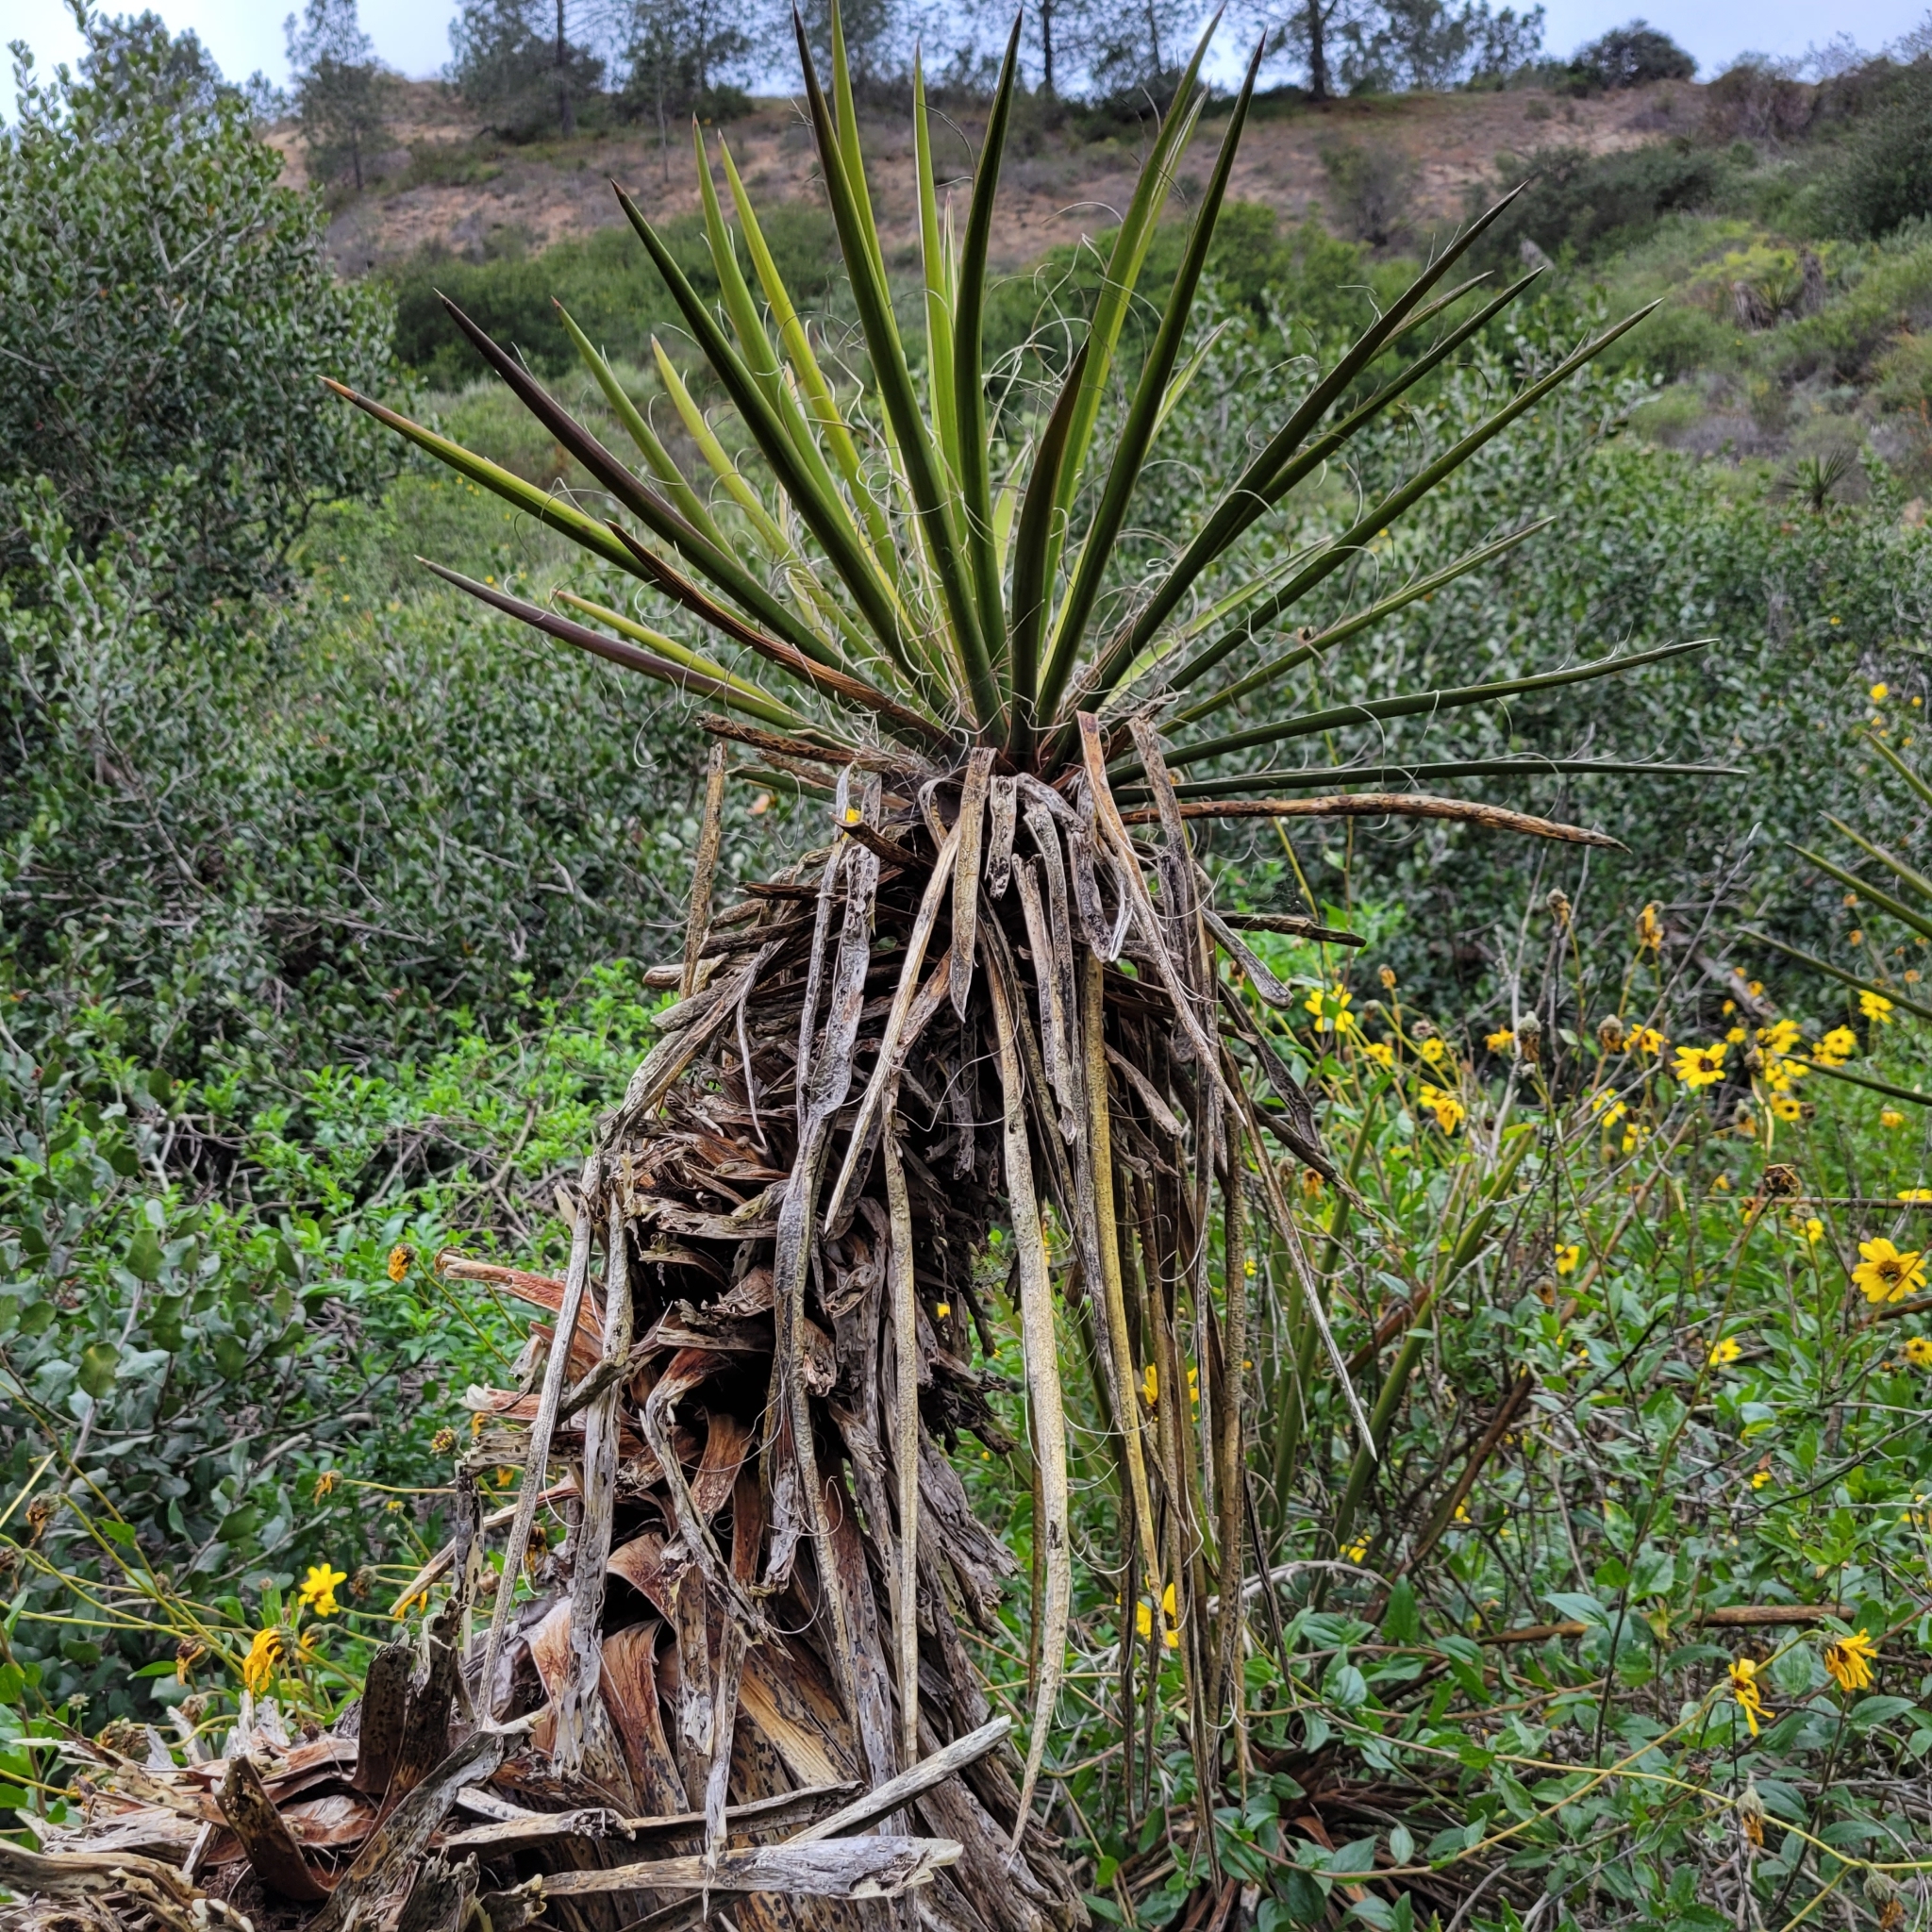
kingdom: Plantae
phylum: Tracheophyta
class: Liliopsida
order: Asparagales
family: Asparagaceae
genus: Yucca
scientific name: Yucca schidigera
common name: Mojave yucca
